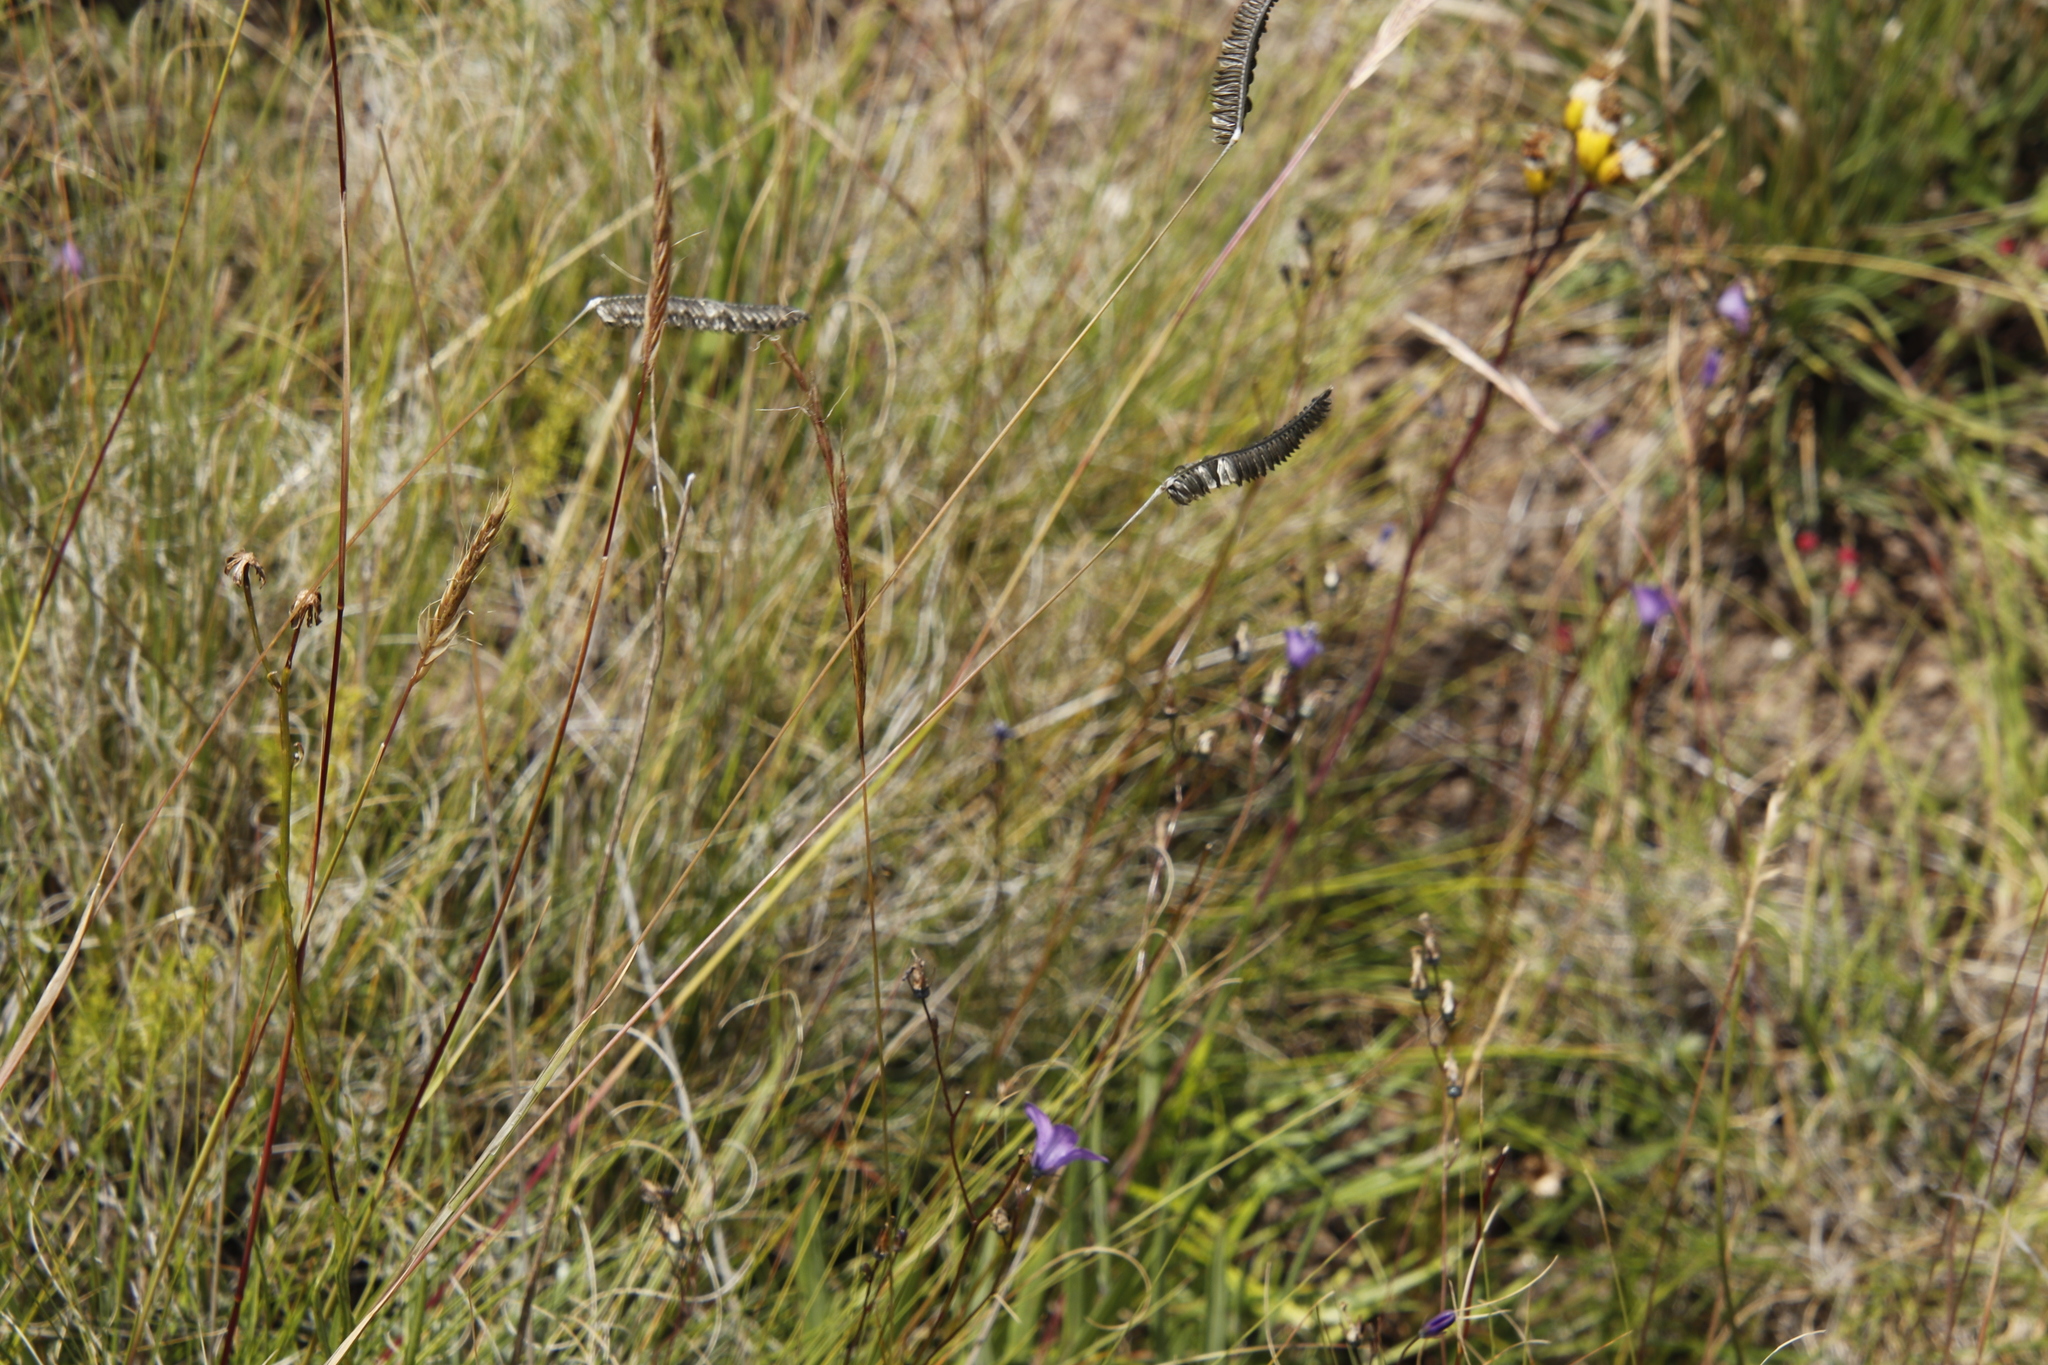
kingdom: Plantae
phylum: Tracheophyta
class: Liliopsida
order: Poales
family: Poaceae
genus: Harpochloa
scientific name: Harpochloa falx
